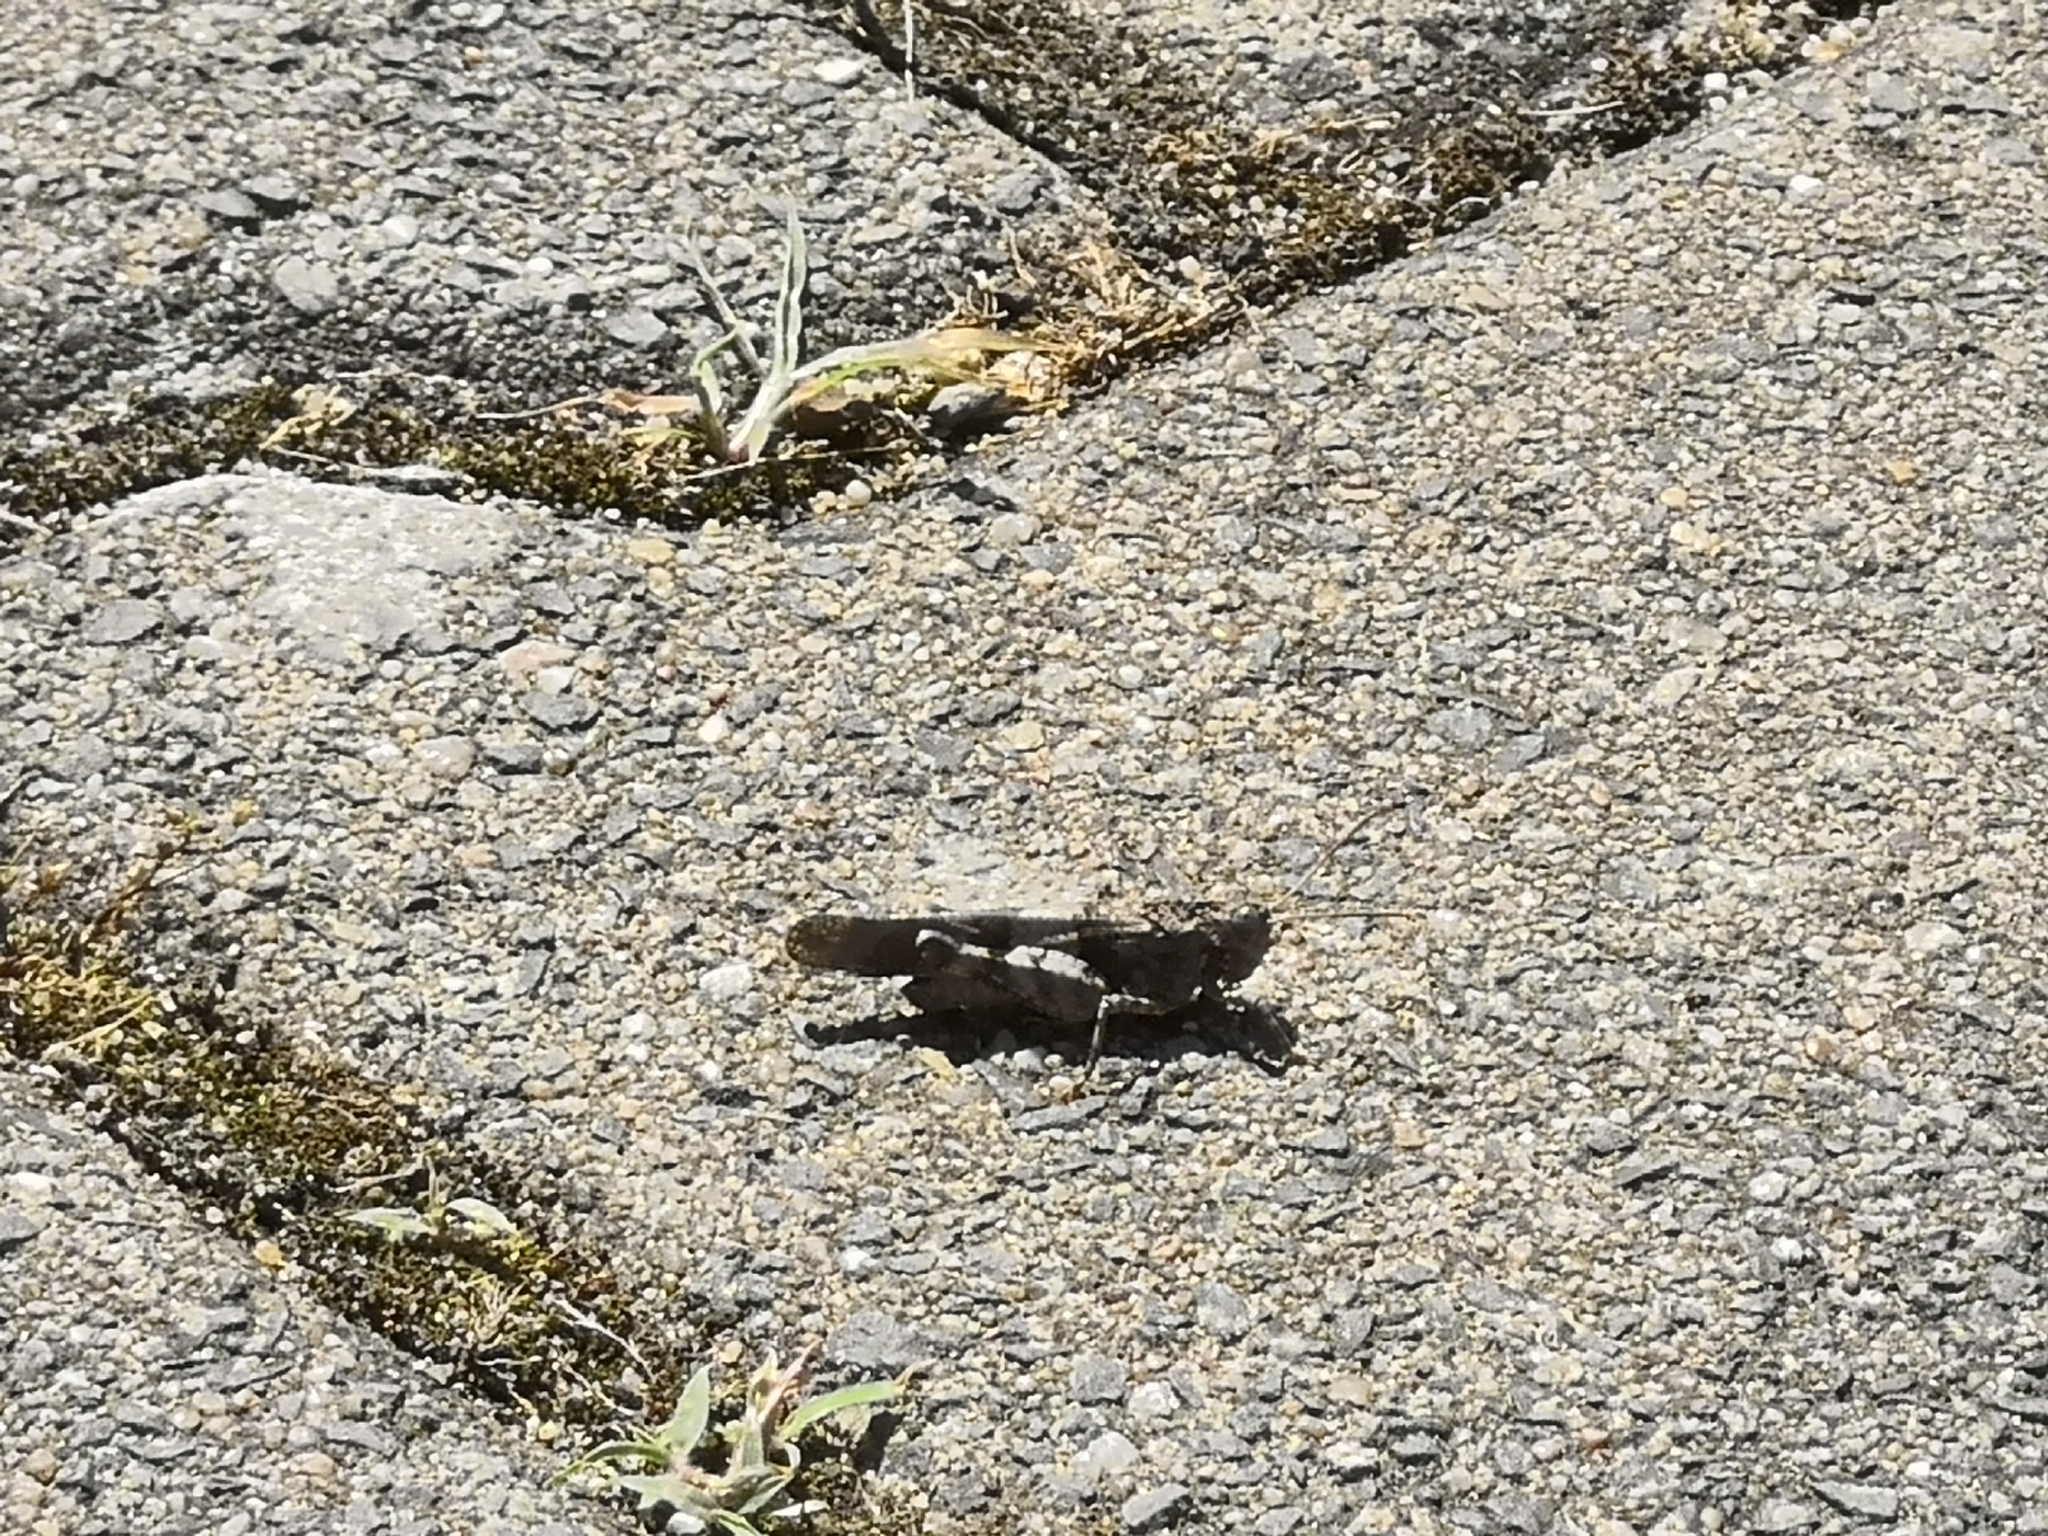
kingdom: Animalia
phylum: Arthropoda
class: Insecta
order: Orthoptera
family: Acrididae
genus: Oedipoda
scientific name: Oedipoda caerulescens
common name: Blue-winged grasshopper
